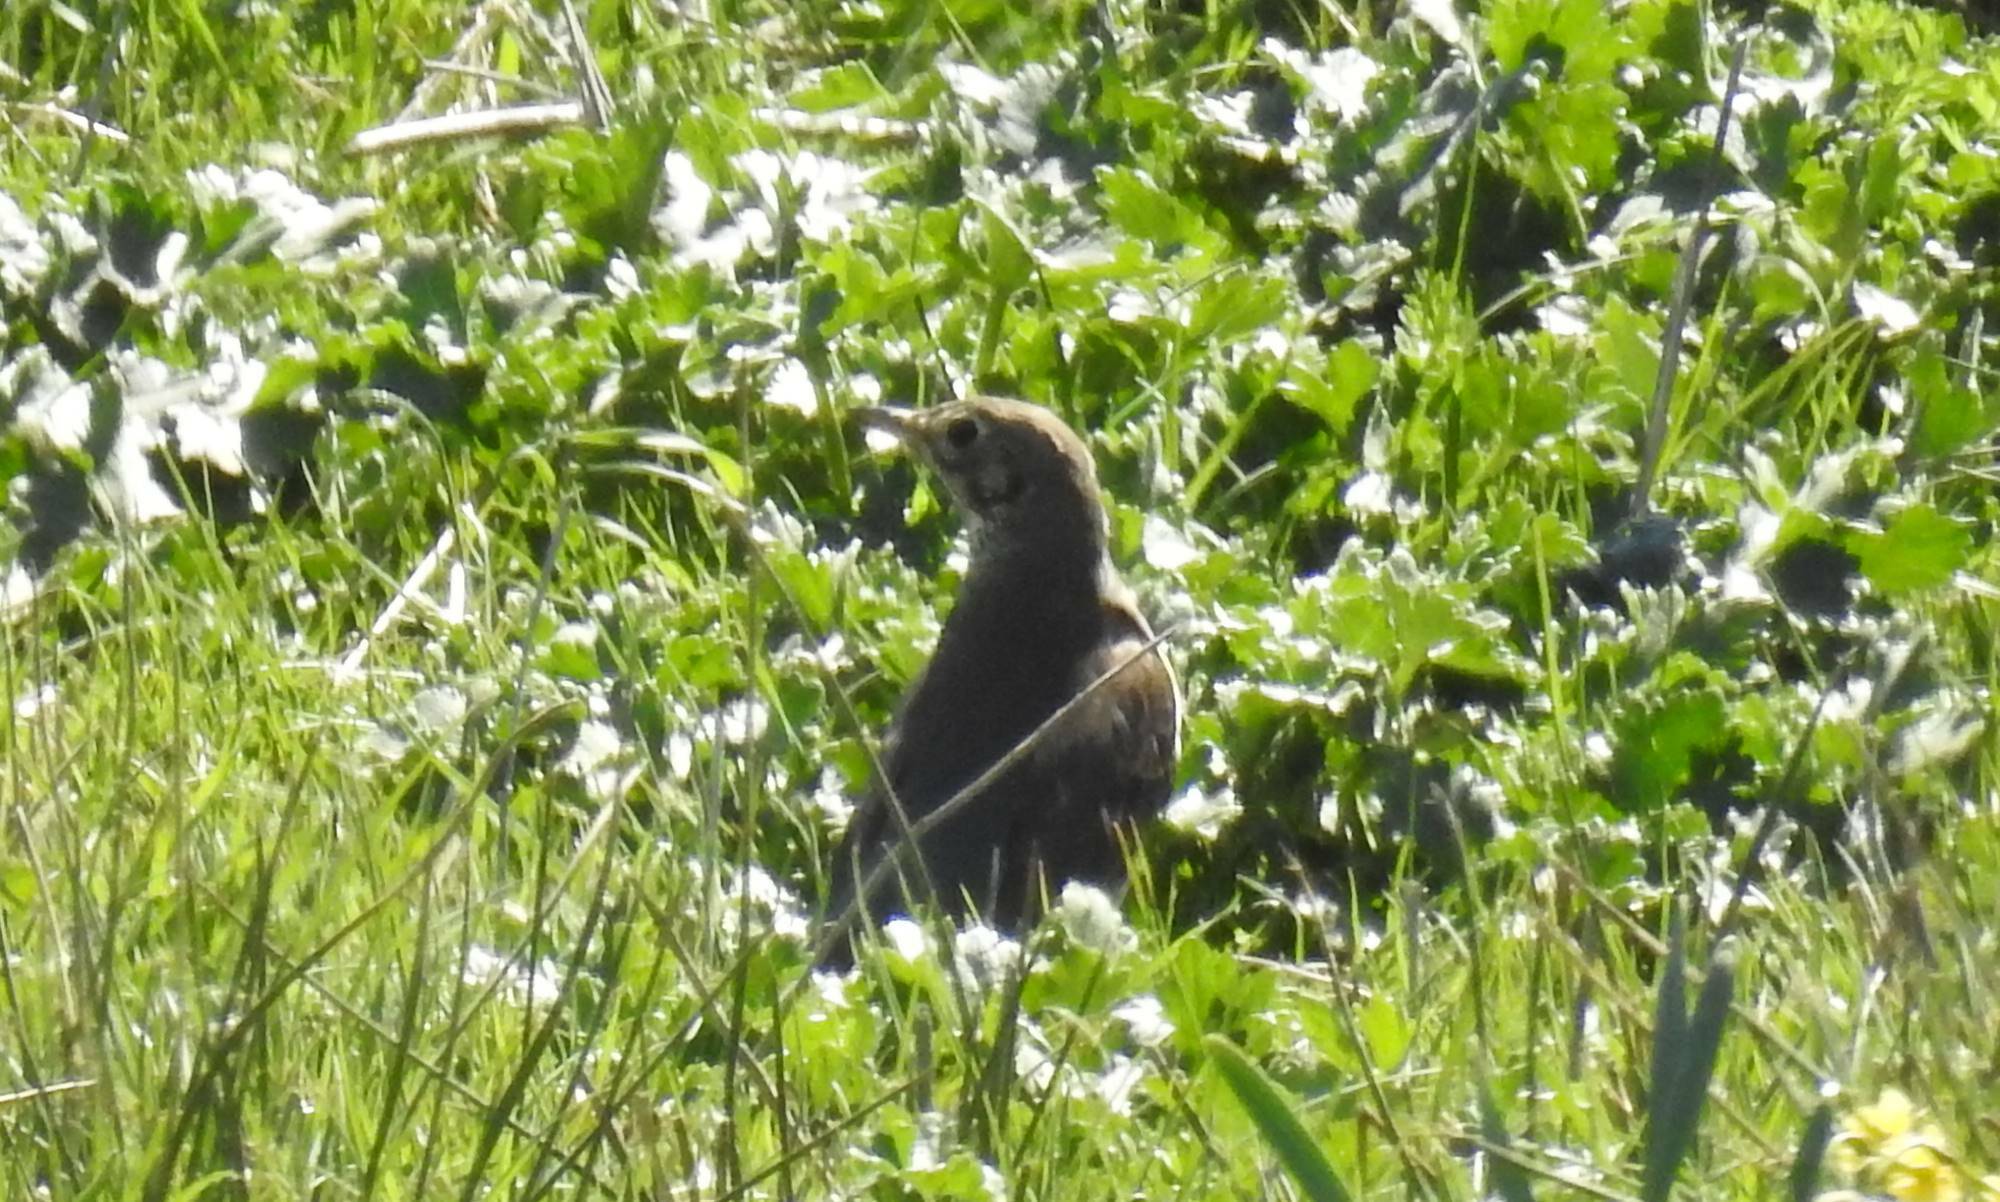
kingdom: Animalia
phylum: Chordata
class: Aves
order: Passeriformes
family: Turdidae
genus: Turdus
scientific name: Turdus viscivorus
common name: Mistle thrush
